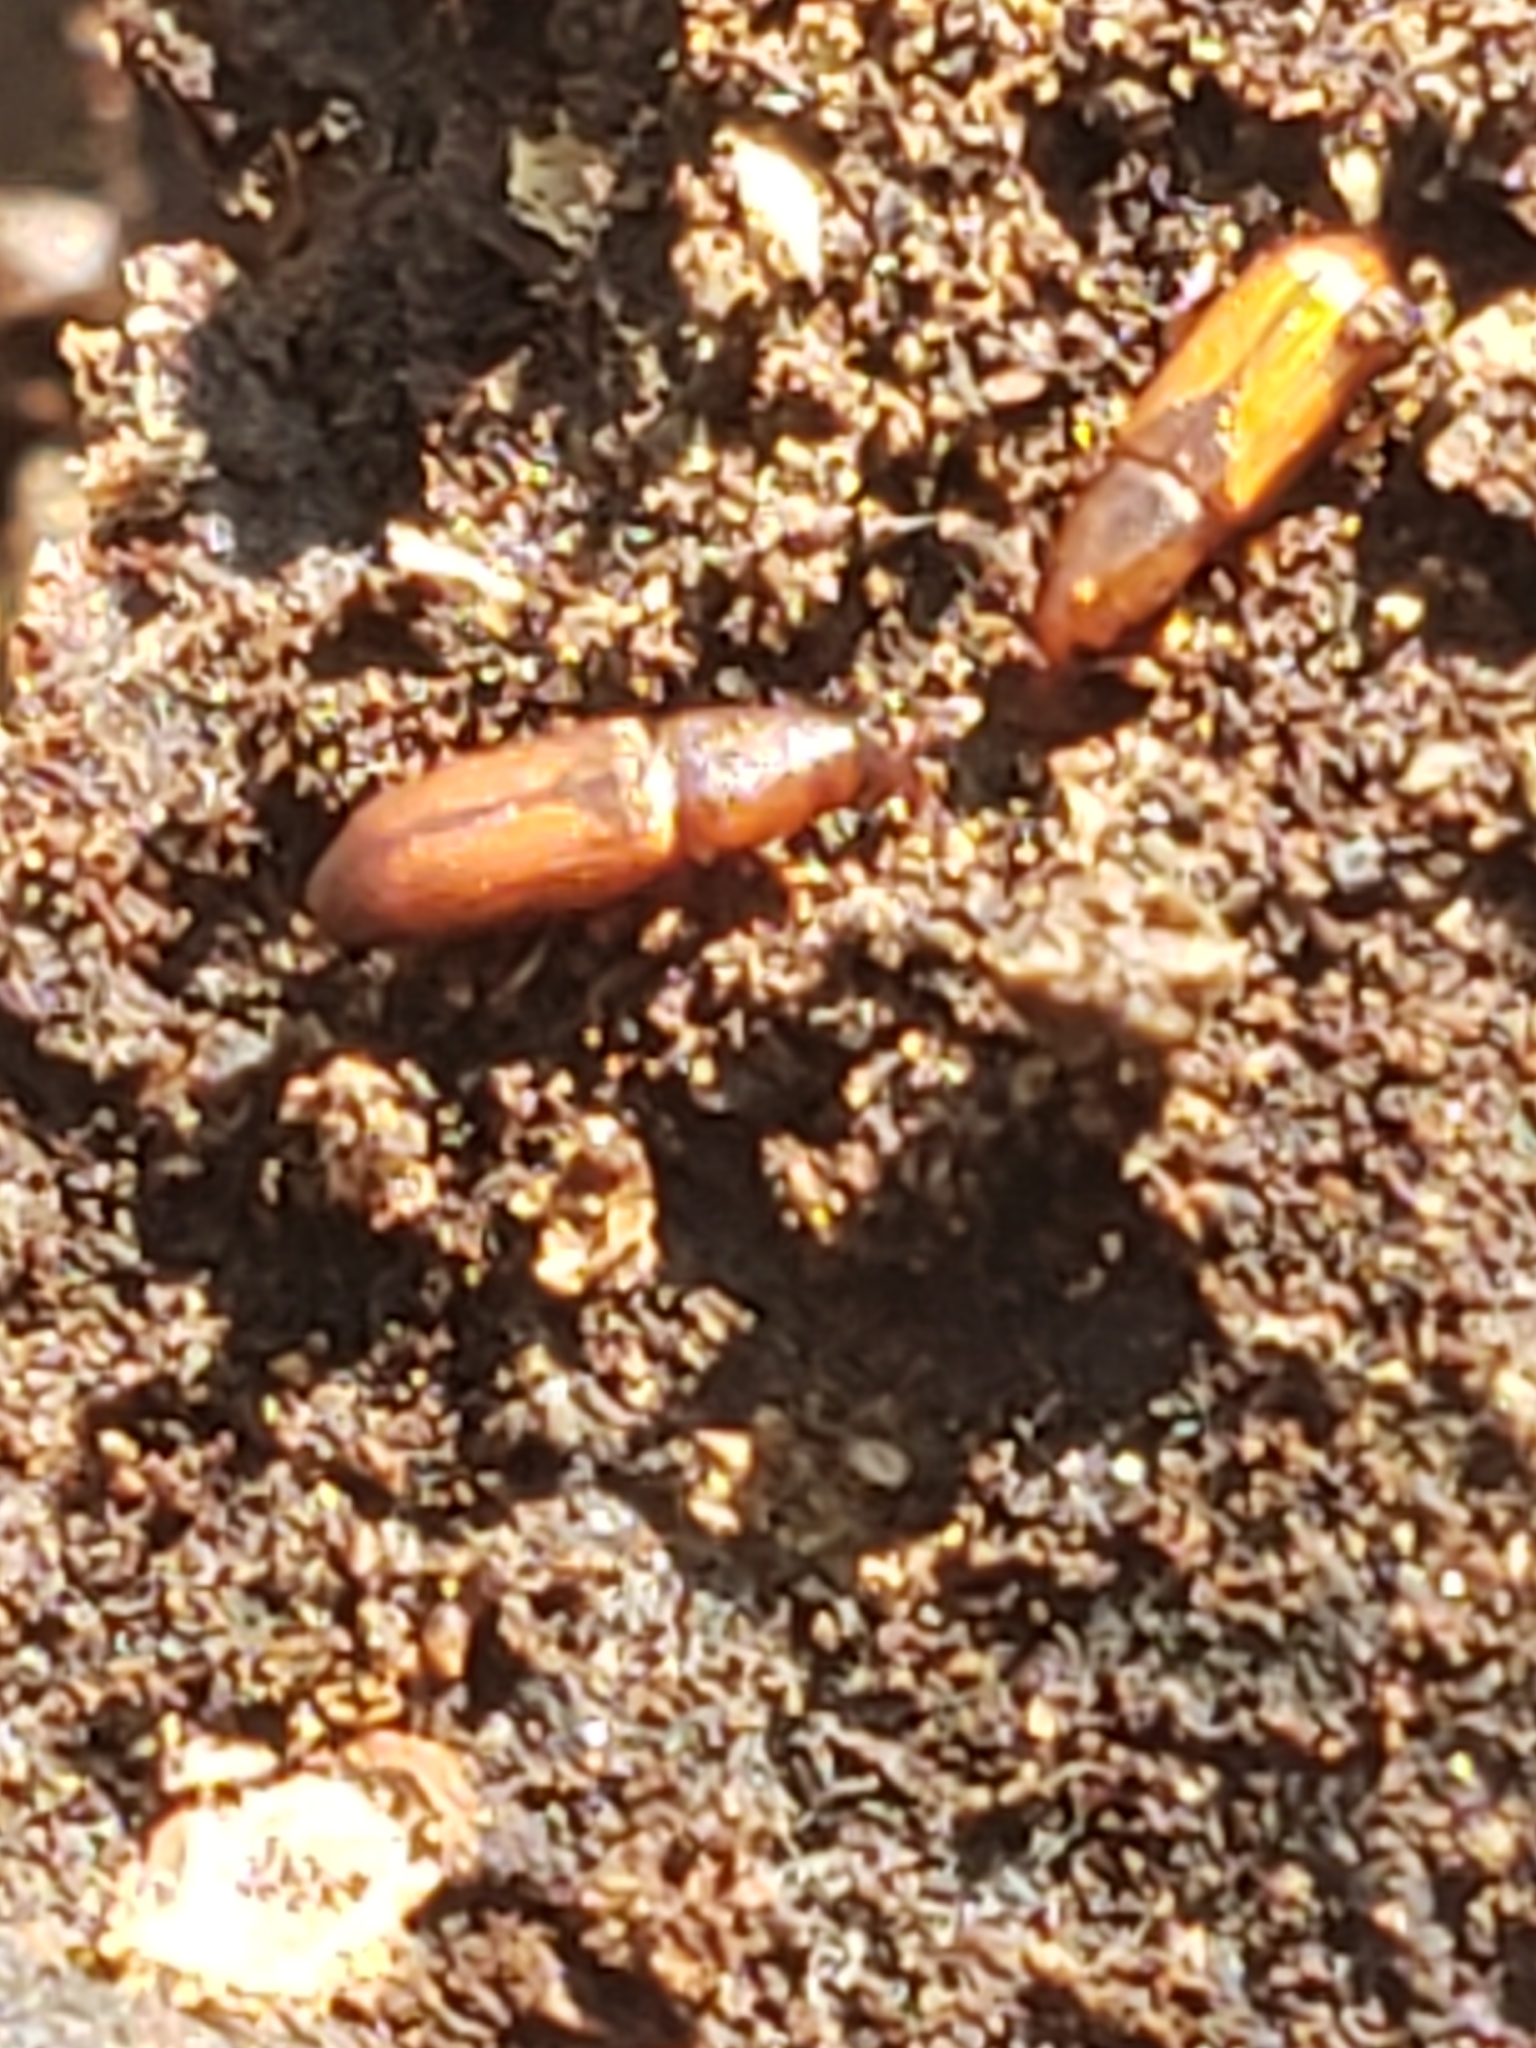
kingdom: Animalia
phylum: Arthropoda
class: Insecta
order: Coleoptera
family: Curculionidae
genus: Micromimus
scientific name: Micromimus corticalis
